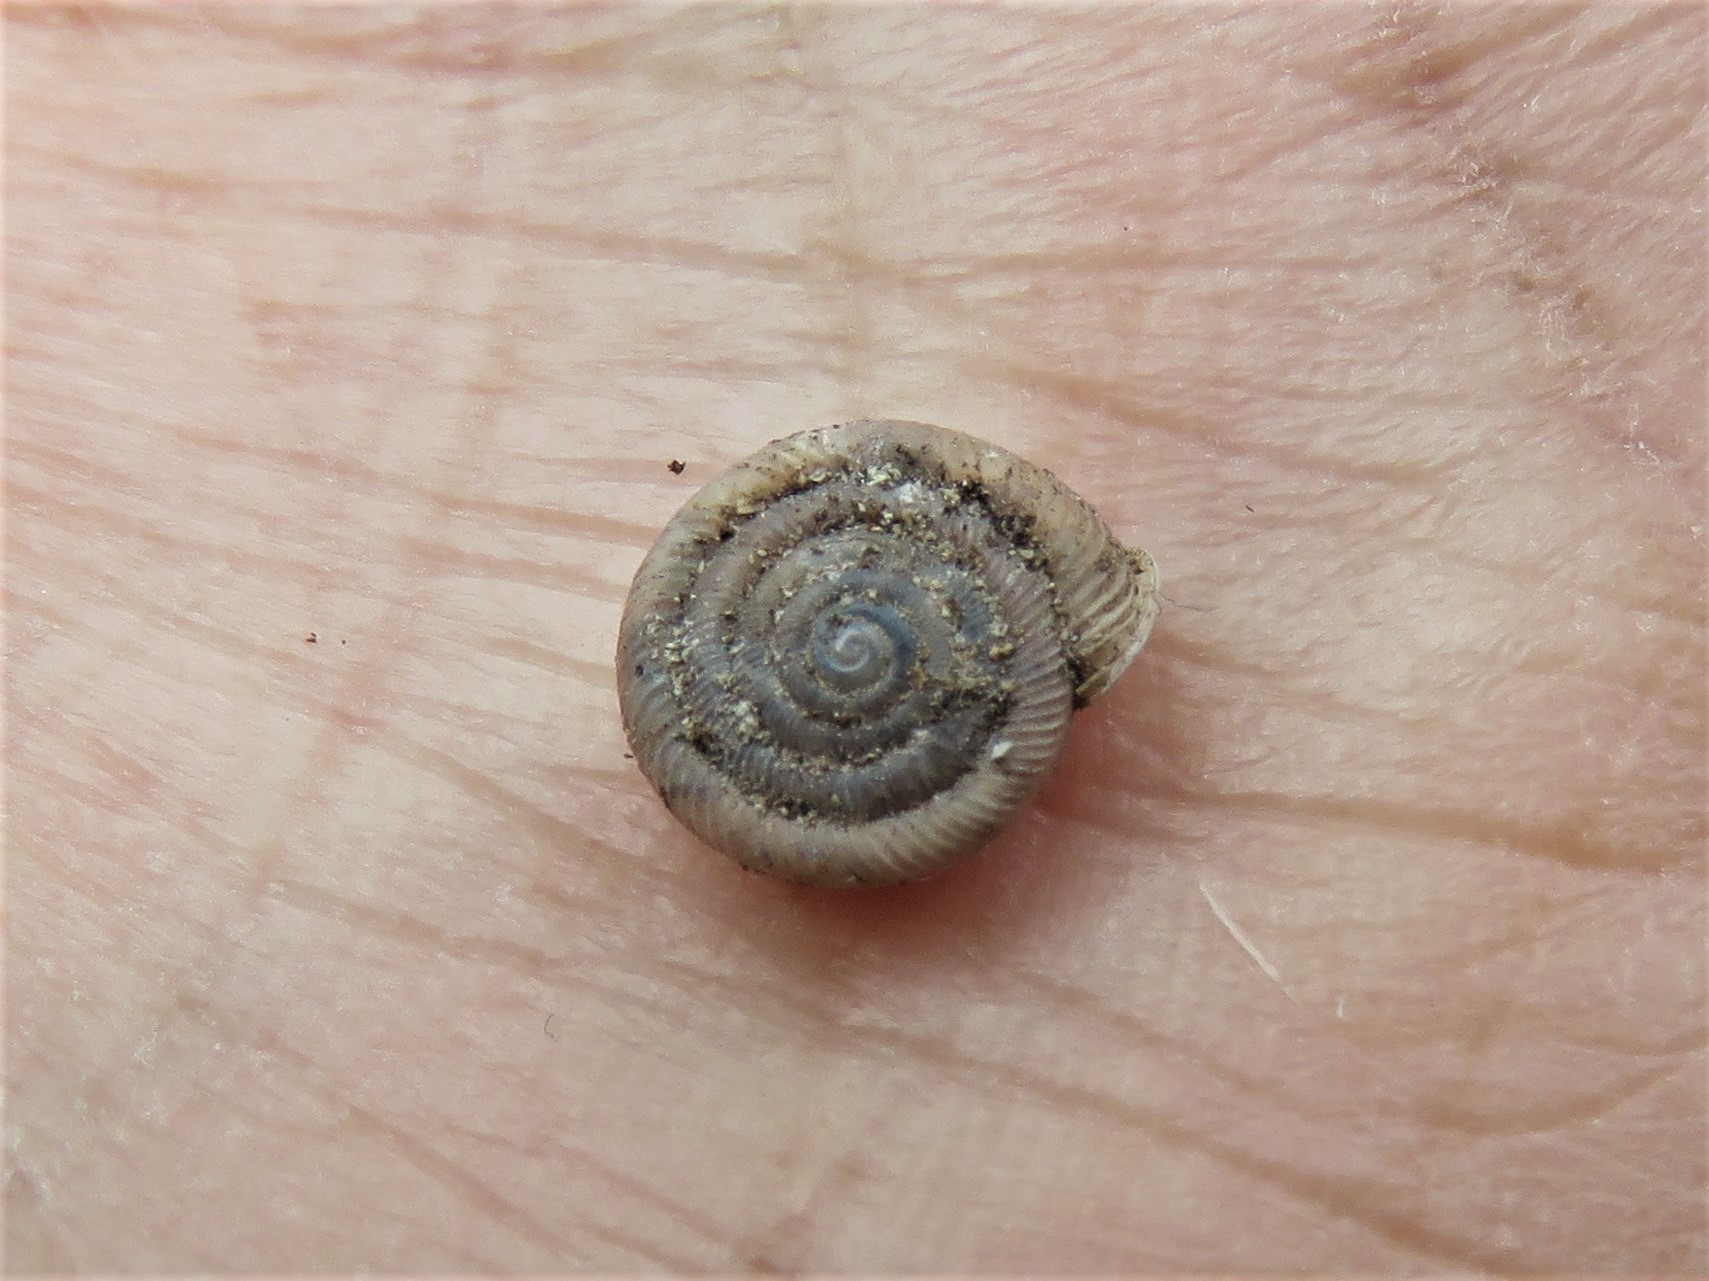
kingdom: Animalia
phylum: Mollusca
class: Gastropoda
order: Stylommatophora
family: Polygyridae
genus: Polygyra
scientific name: Polygyra cereolus
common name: Southern flatcone snail
